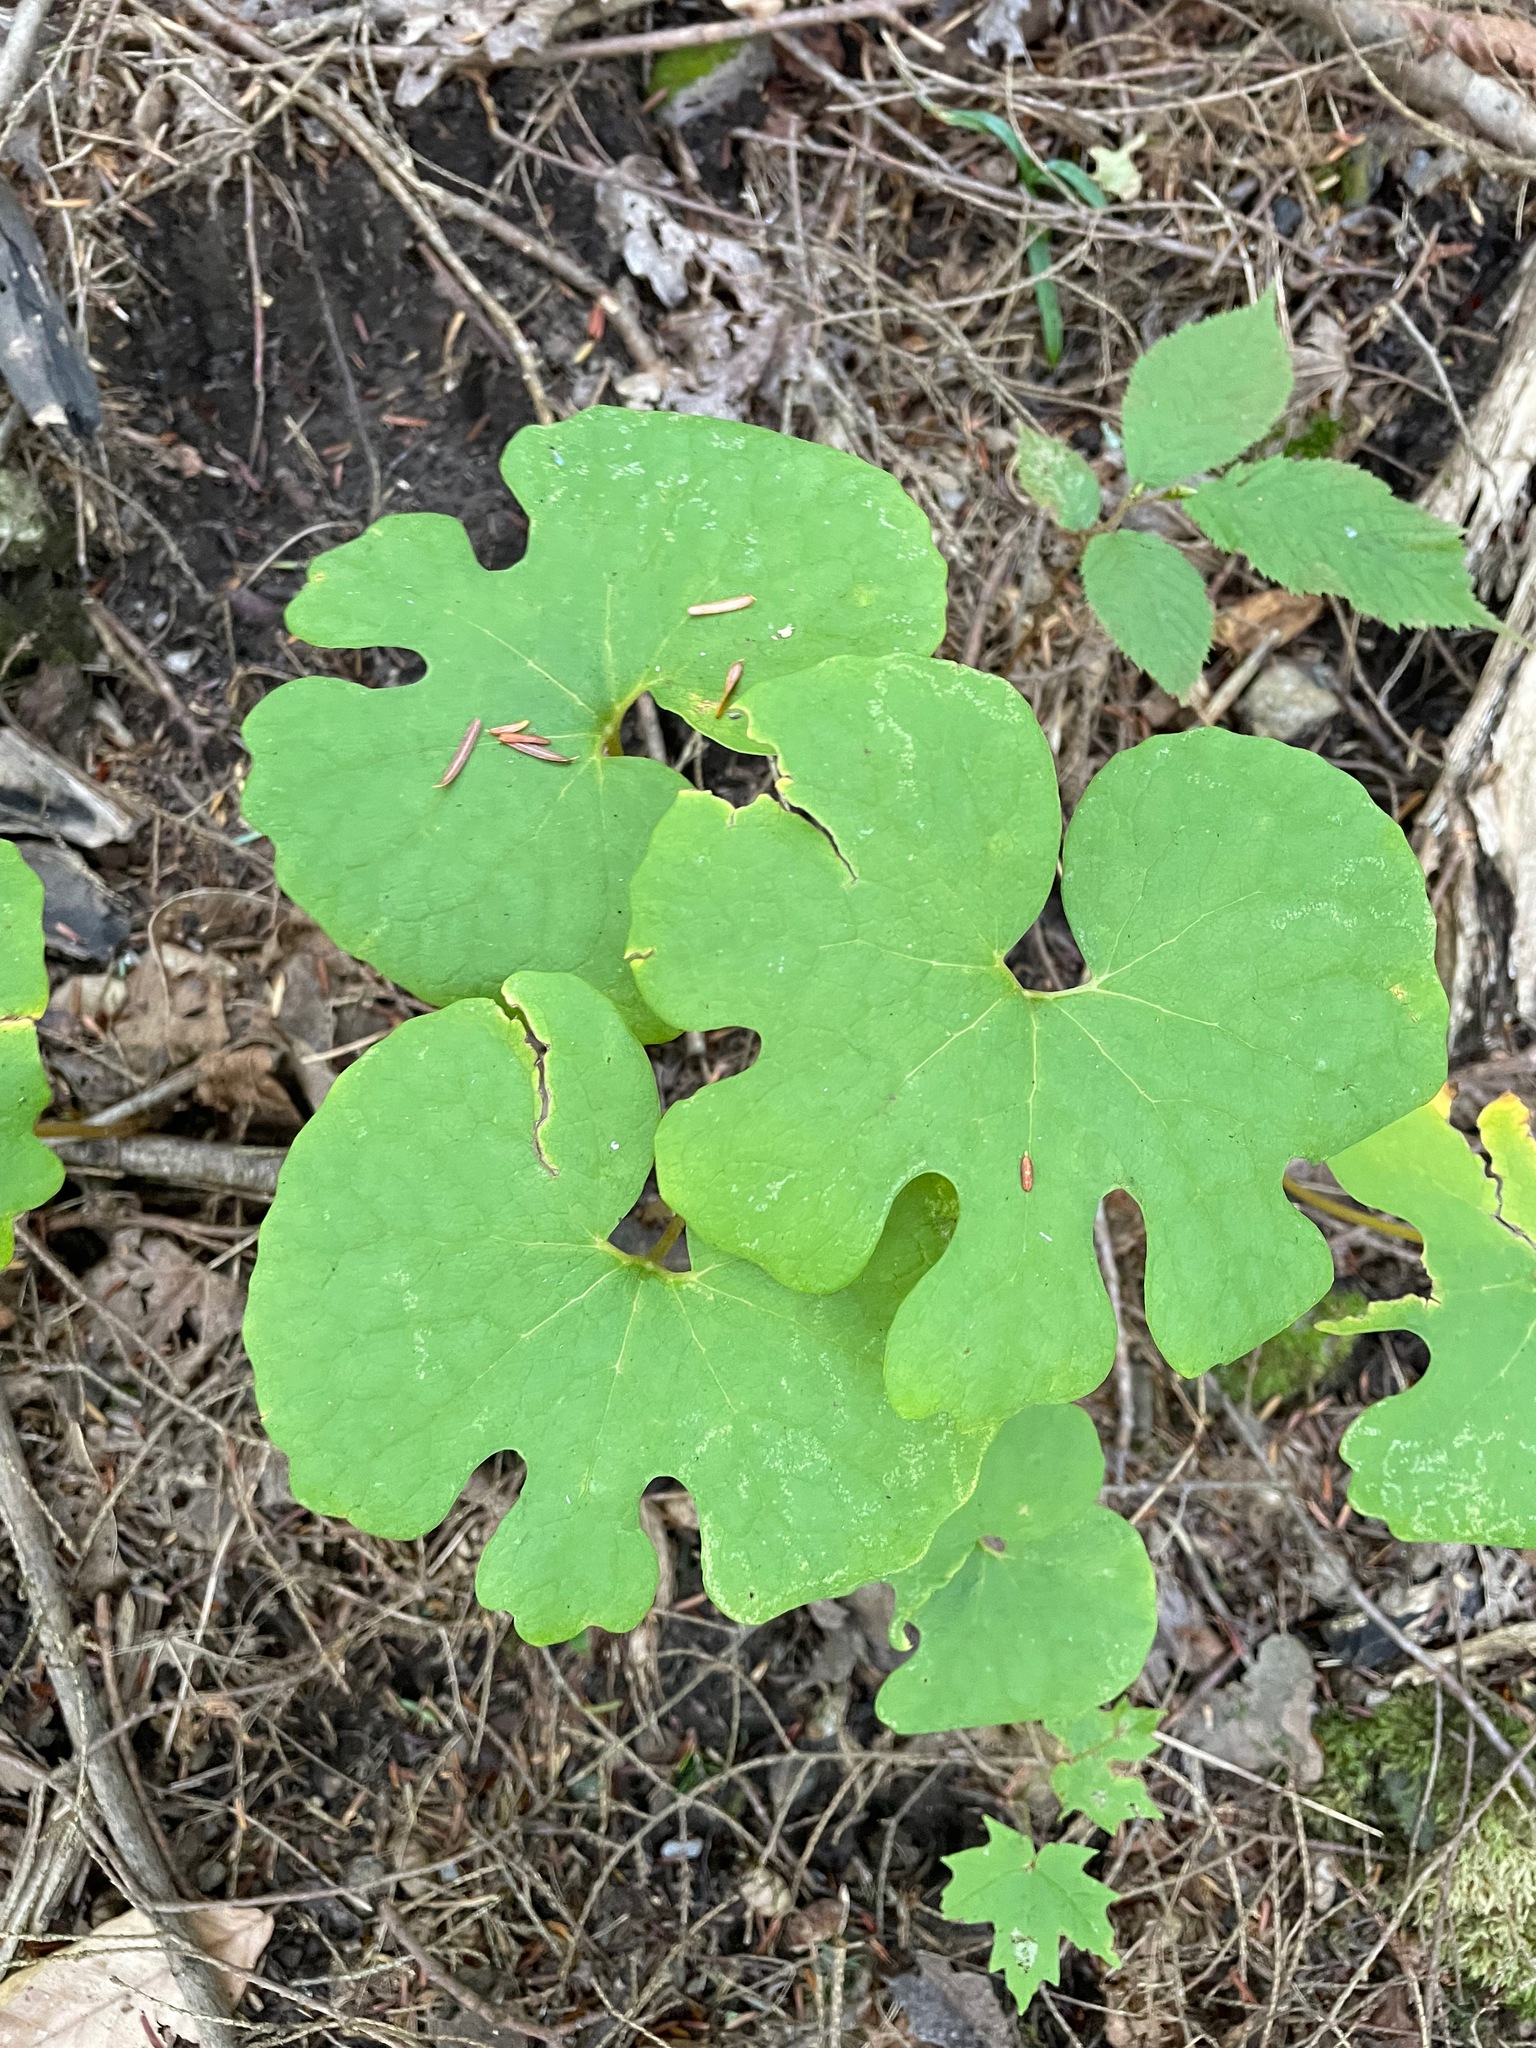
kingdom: Plantae
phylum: Tracheophyta
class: Magnoliopsida
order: Ranunculales
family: Papaveraceae
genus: Sanguinaria
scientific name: Sanguinaria canadensis
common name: Bloodroot
